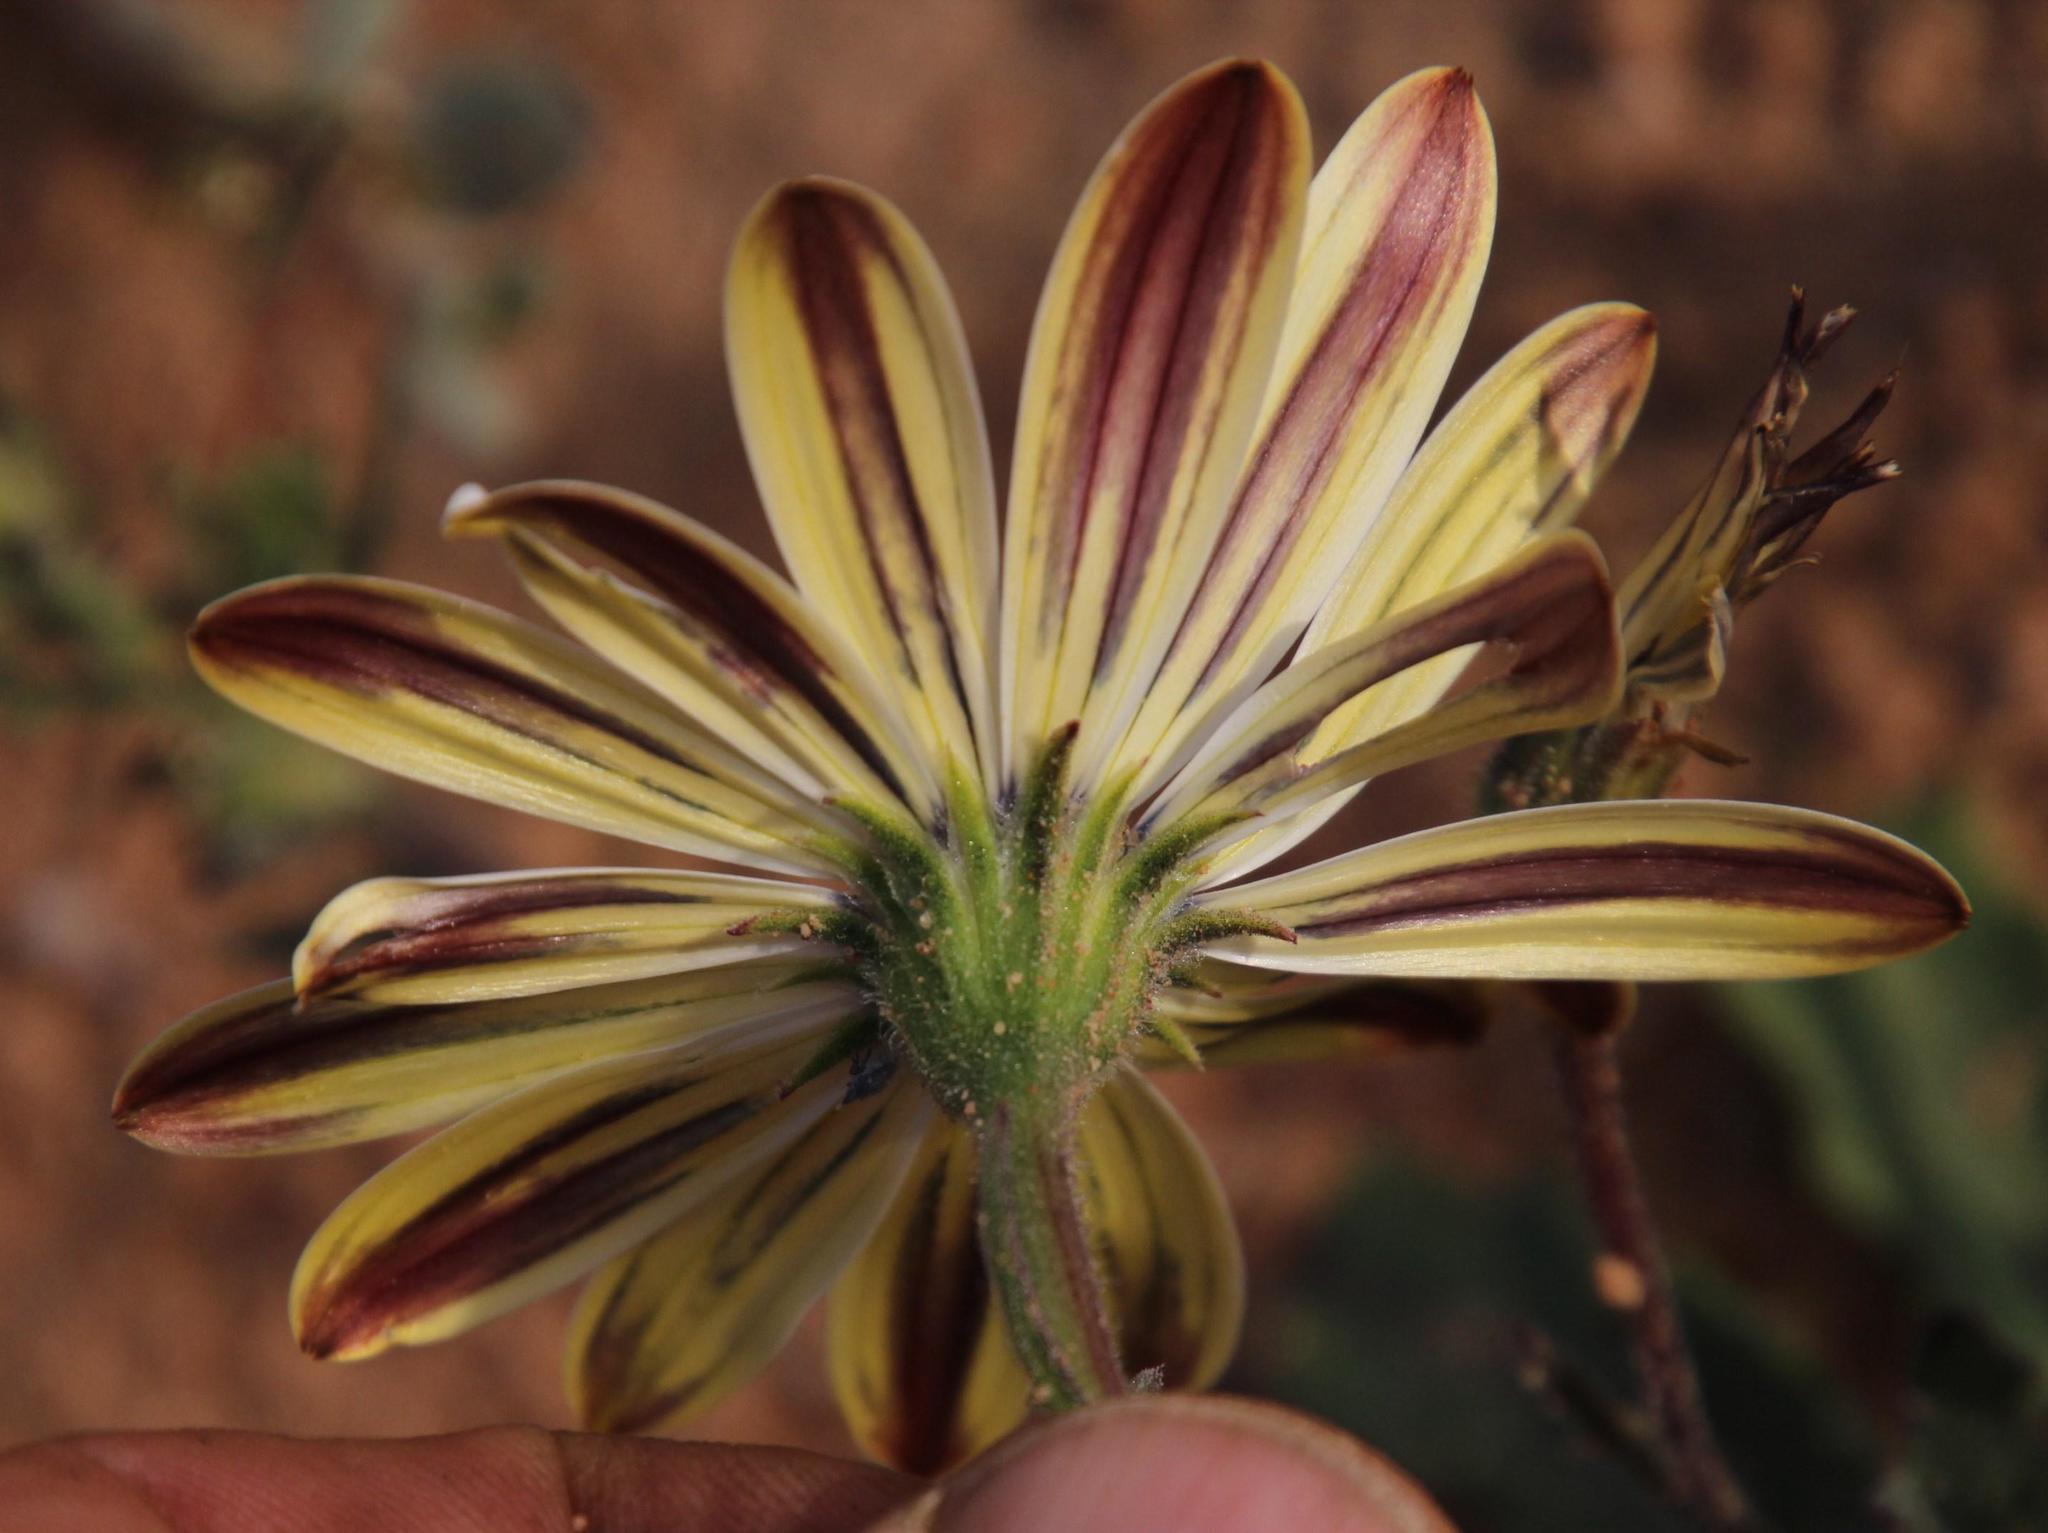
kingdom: Plantae
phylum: Tracheophyta
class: Magnoliopsida
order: Asterales
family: Asteraceae
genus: Dimorphotheca
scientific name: Dimorphotheca pluvialis
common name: Weather prophet
